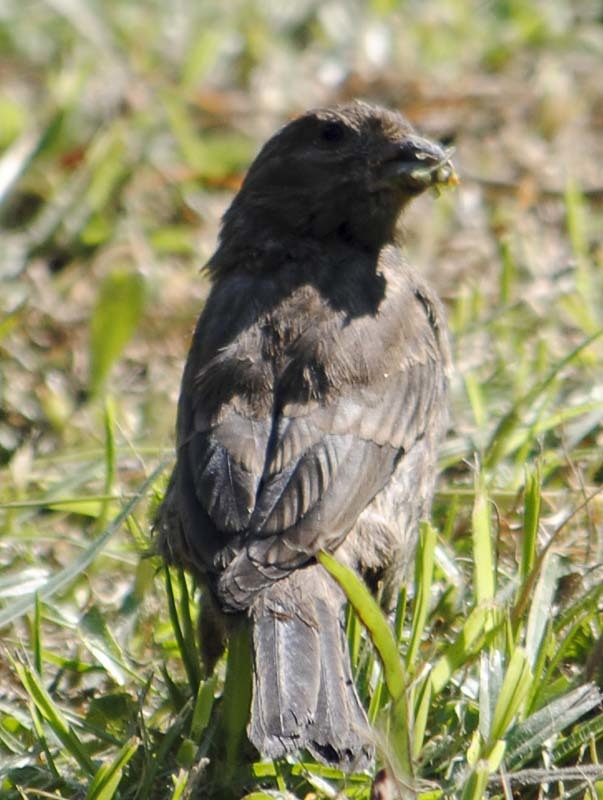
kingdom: Animalia
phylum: Chordata
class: Aves
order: Passeriformes
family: Fringillidae
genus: Haemorhous
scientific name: Haemorhous mexicanus
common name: House finch
